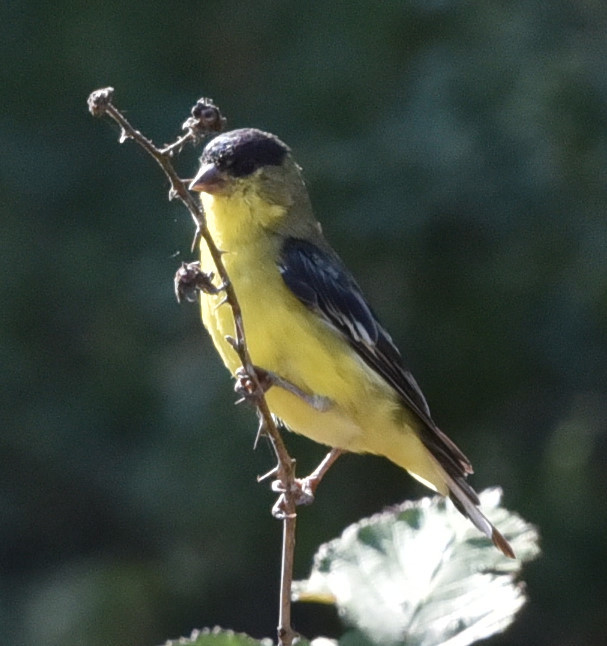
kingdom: Animalia
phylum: Chordata
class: Aves
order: Passeriformes
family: Fringillidae
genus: Spinus
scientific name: Spinus psaltria
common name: Lesser goldfinch
